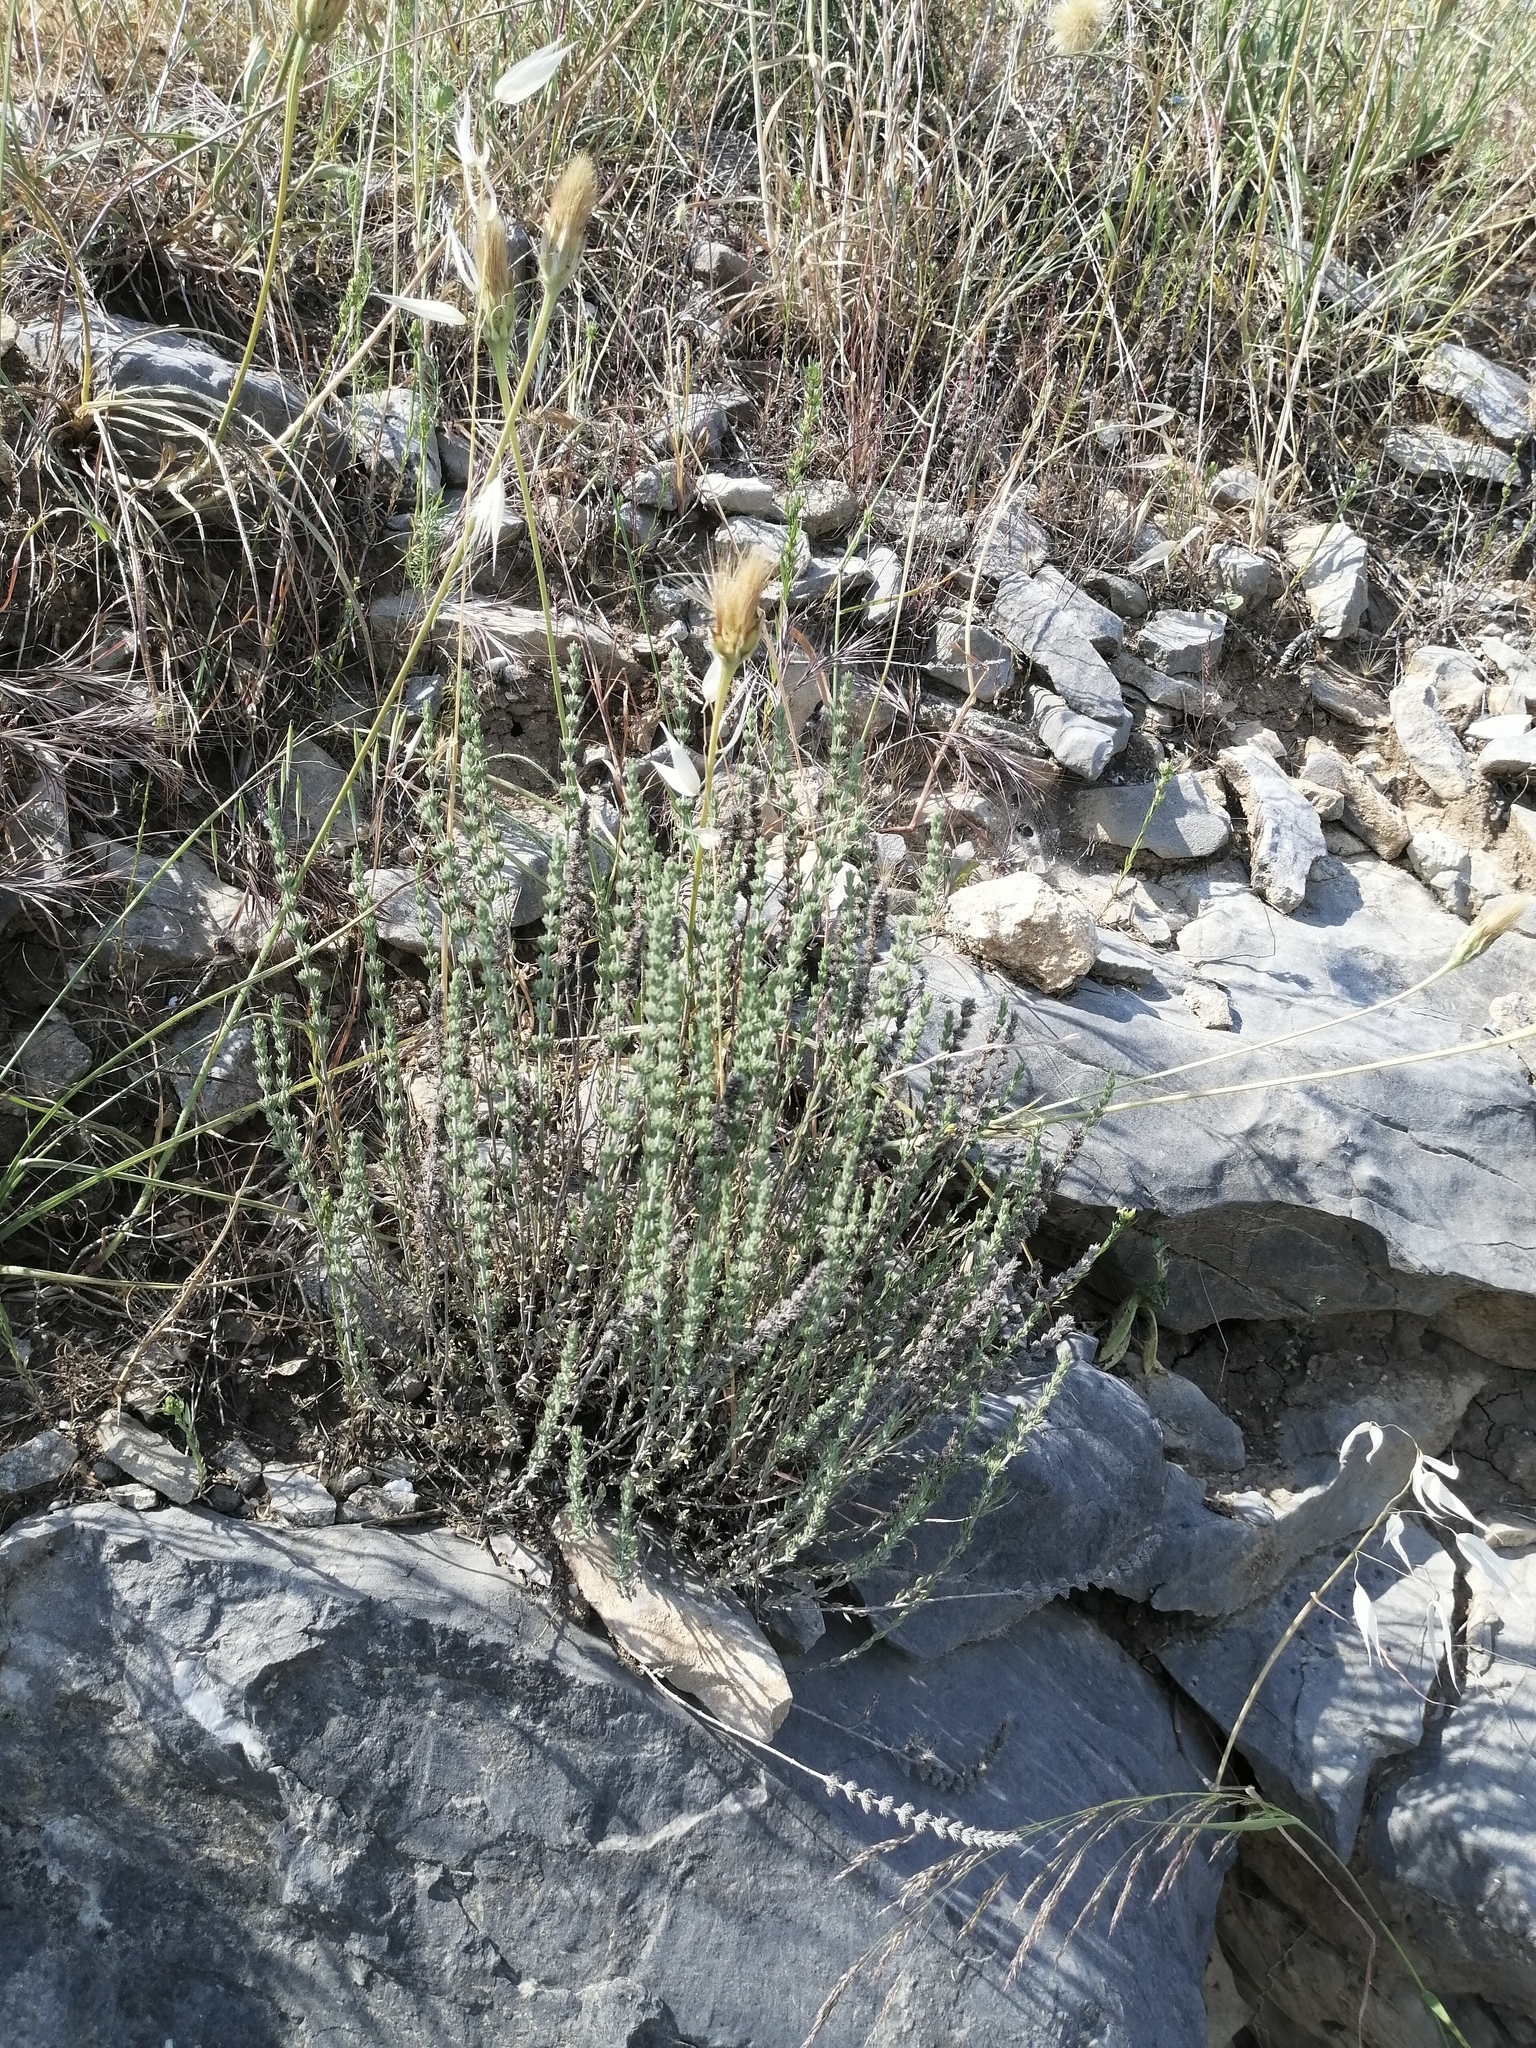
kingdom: Plantae
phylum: Tracheophyta
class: Magnoliopsida
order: Lamiales
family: Lamiaceae
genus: Micromeria
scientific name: Micromeria juliana
